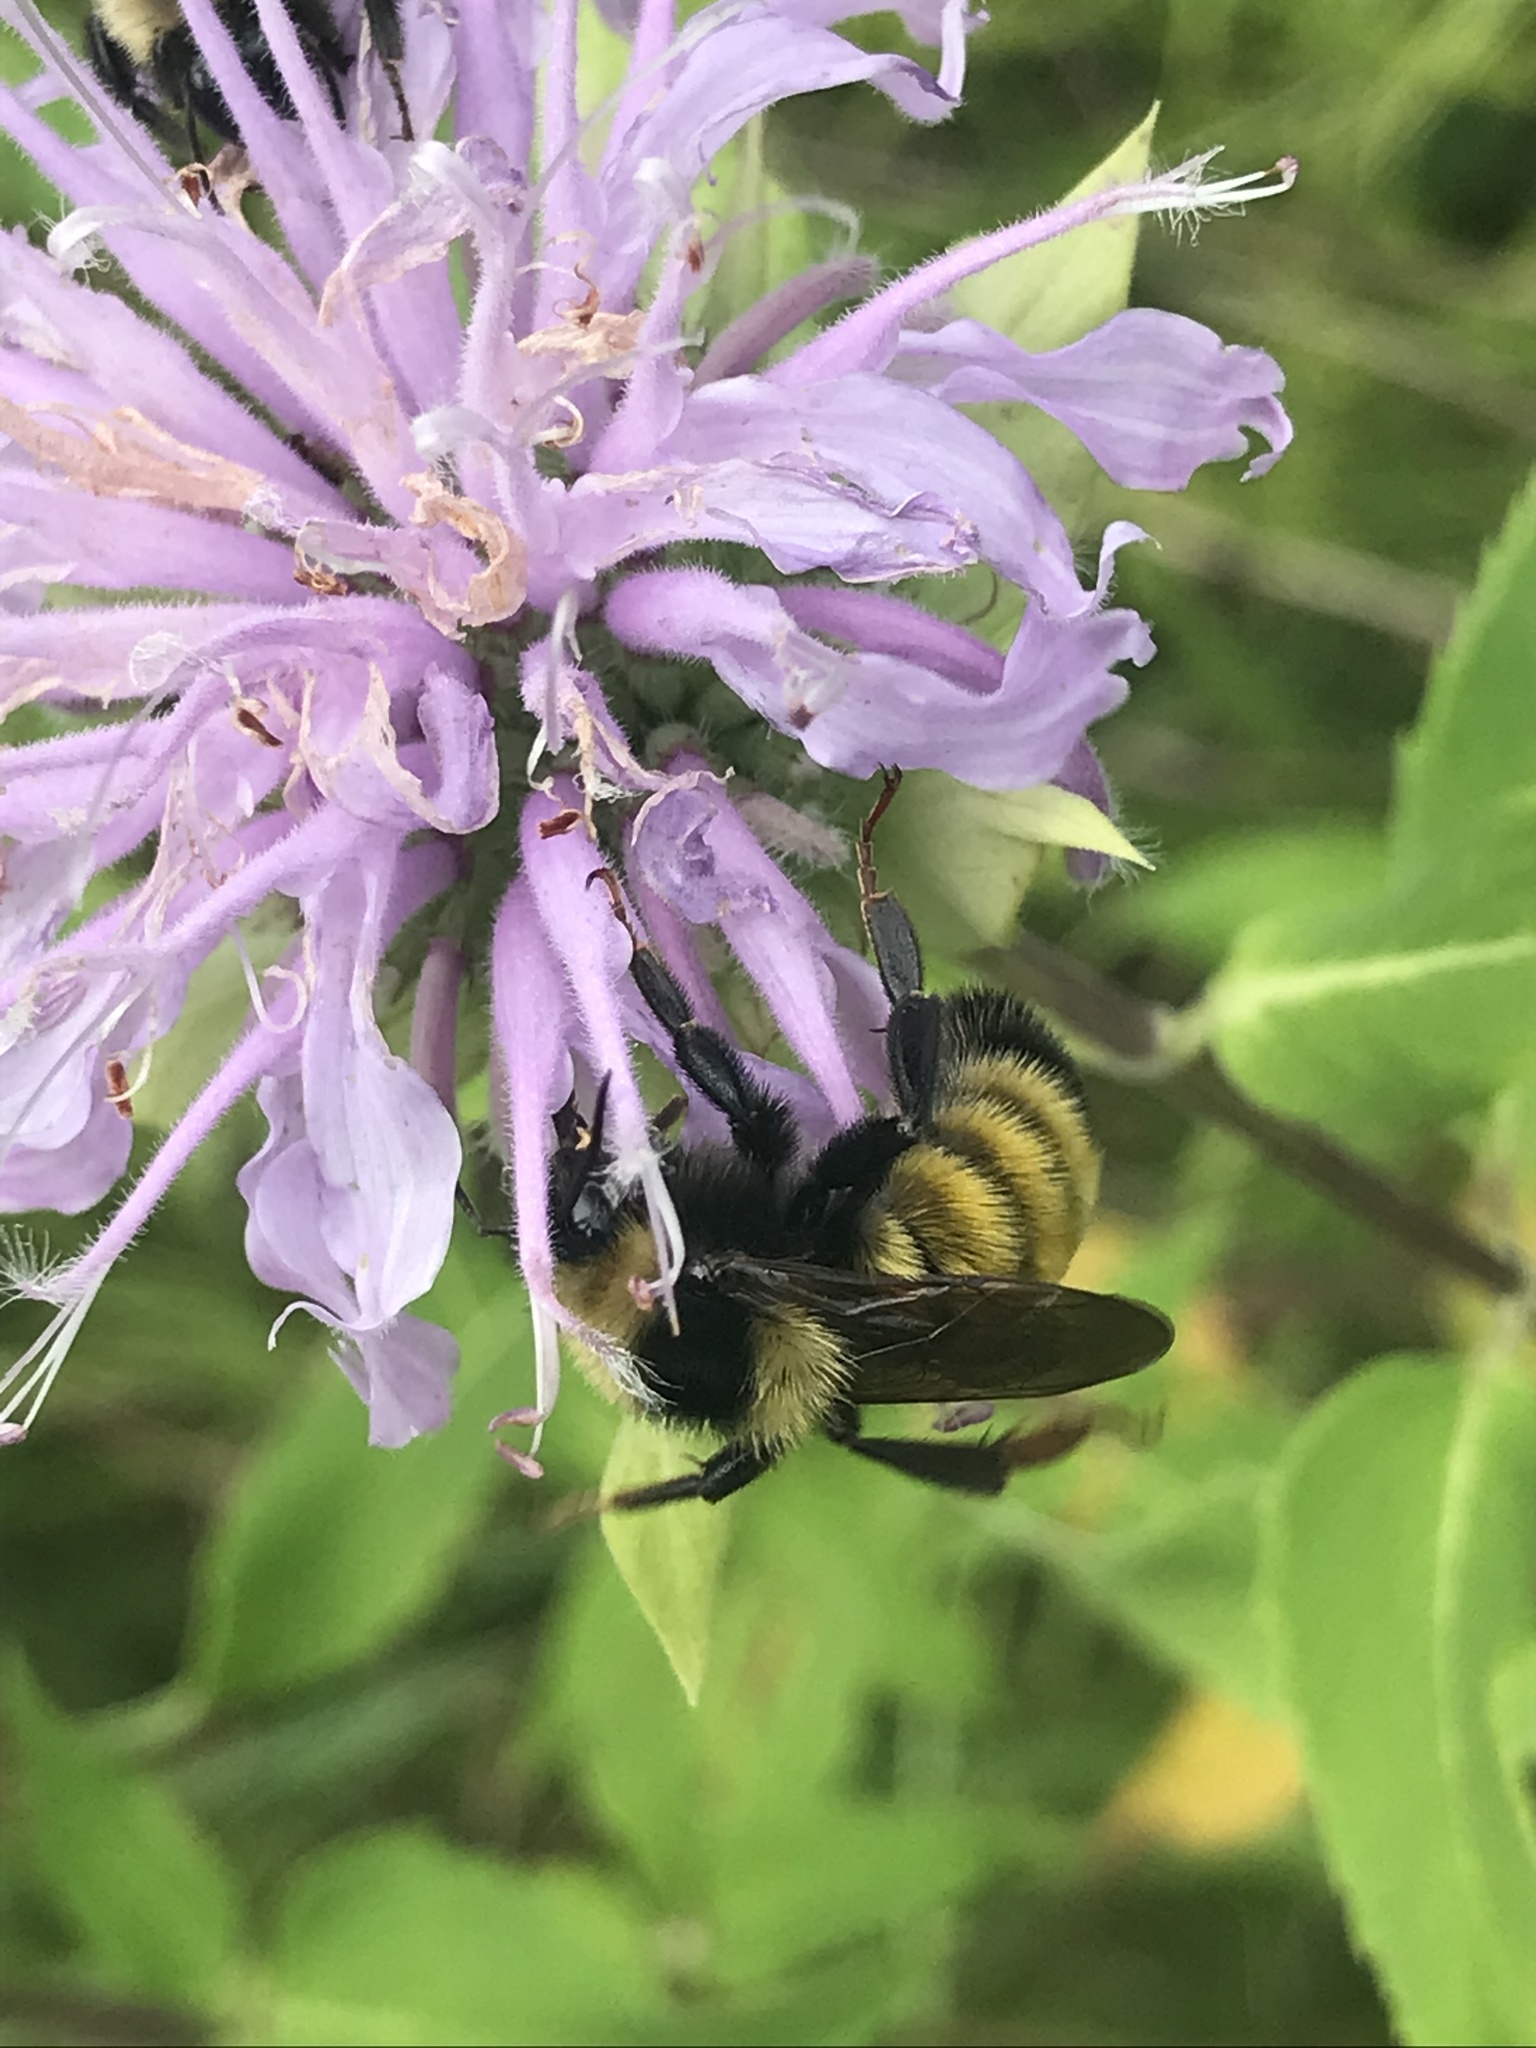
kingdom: Animalia
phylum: Arthropoda
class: Insecta
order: Hymenoptera
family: Apidae
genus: Bombus
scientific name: Bombus borealis
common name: Northern amber bumble bee
